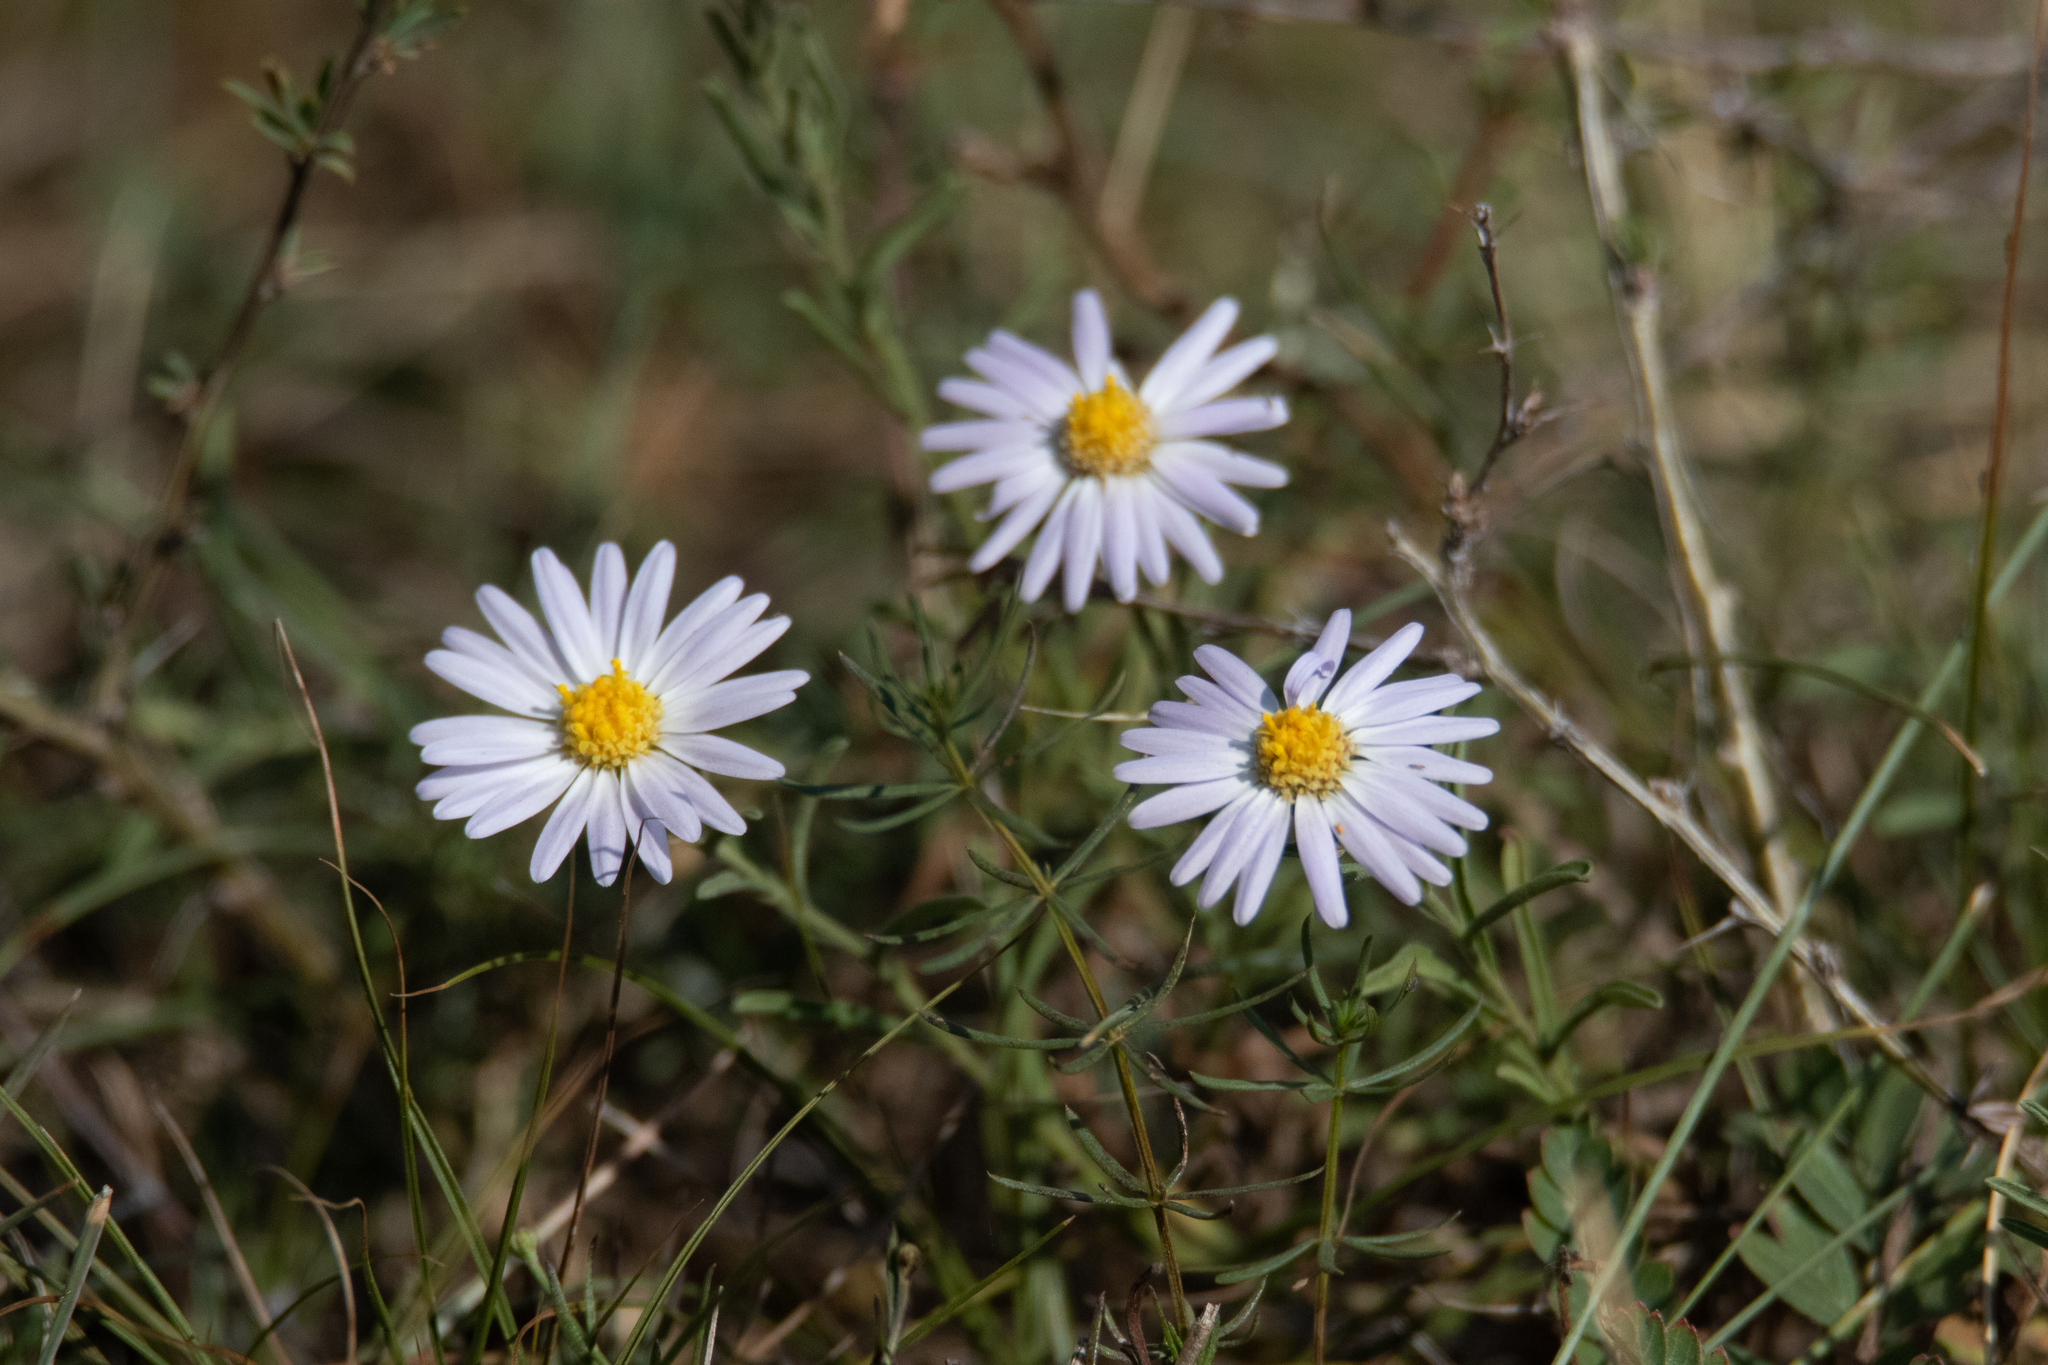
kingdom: Plantae
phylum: Tracheophyta
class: Magnoliopsida
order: Asterales
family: Asteraceae
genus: Heteropappus
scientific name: Heteropappus altaicus
